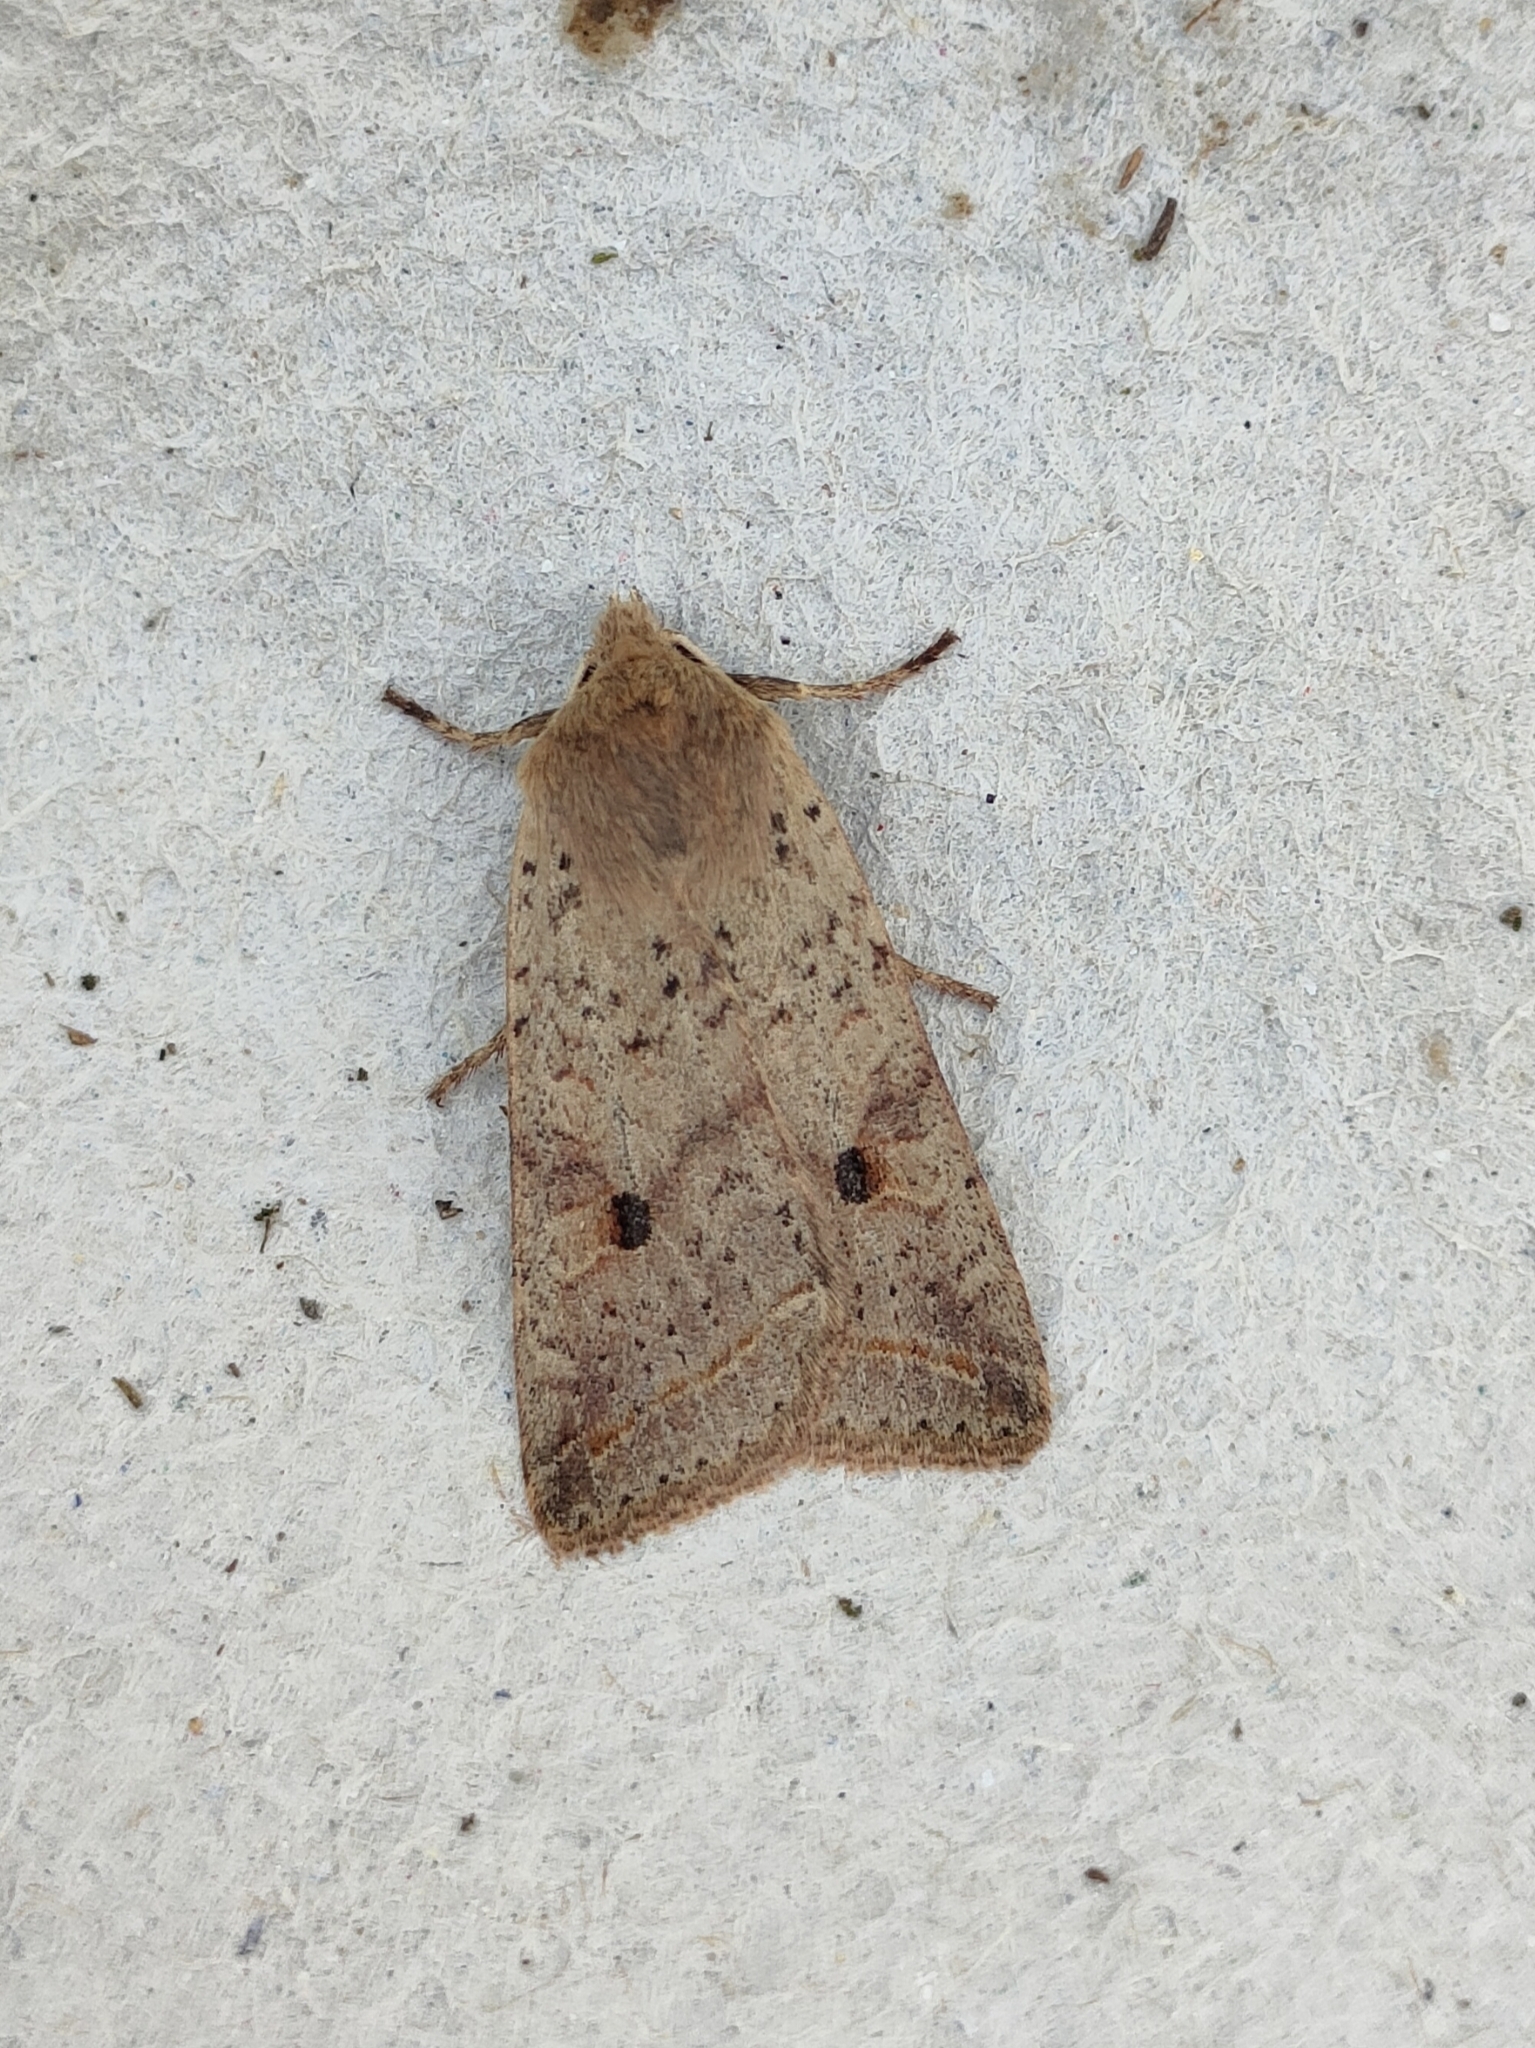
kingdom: Animalia
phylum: Arthropoda
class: Insecta
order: Lepidoptera
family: Noctuidae
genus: Agrochola
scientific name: Agrochola blidaensis
